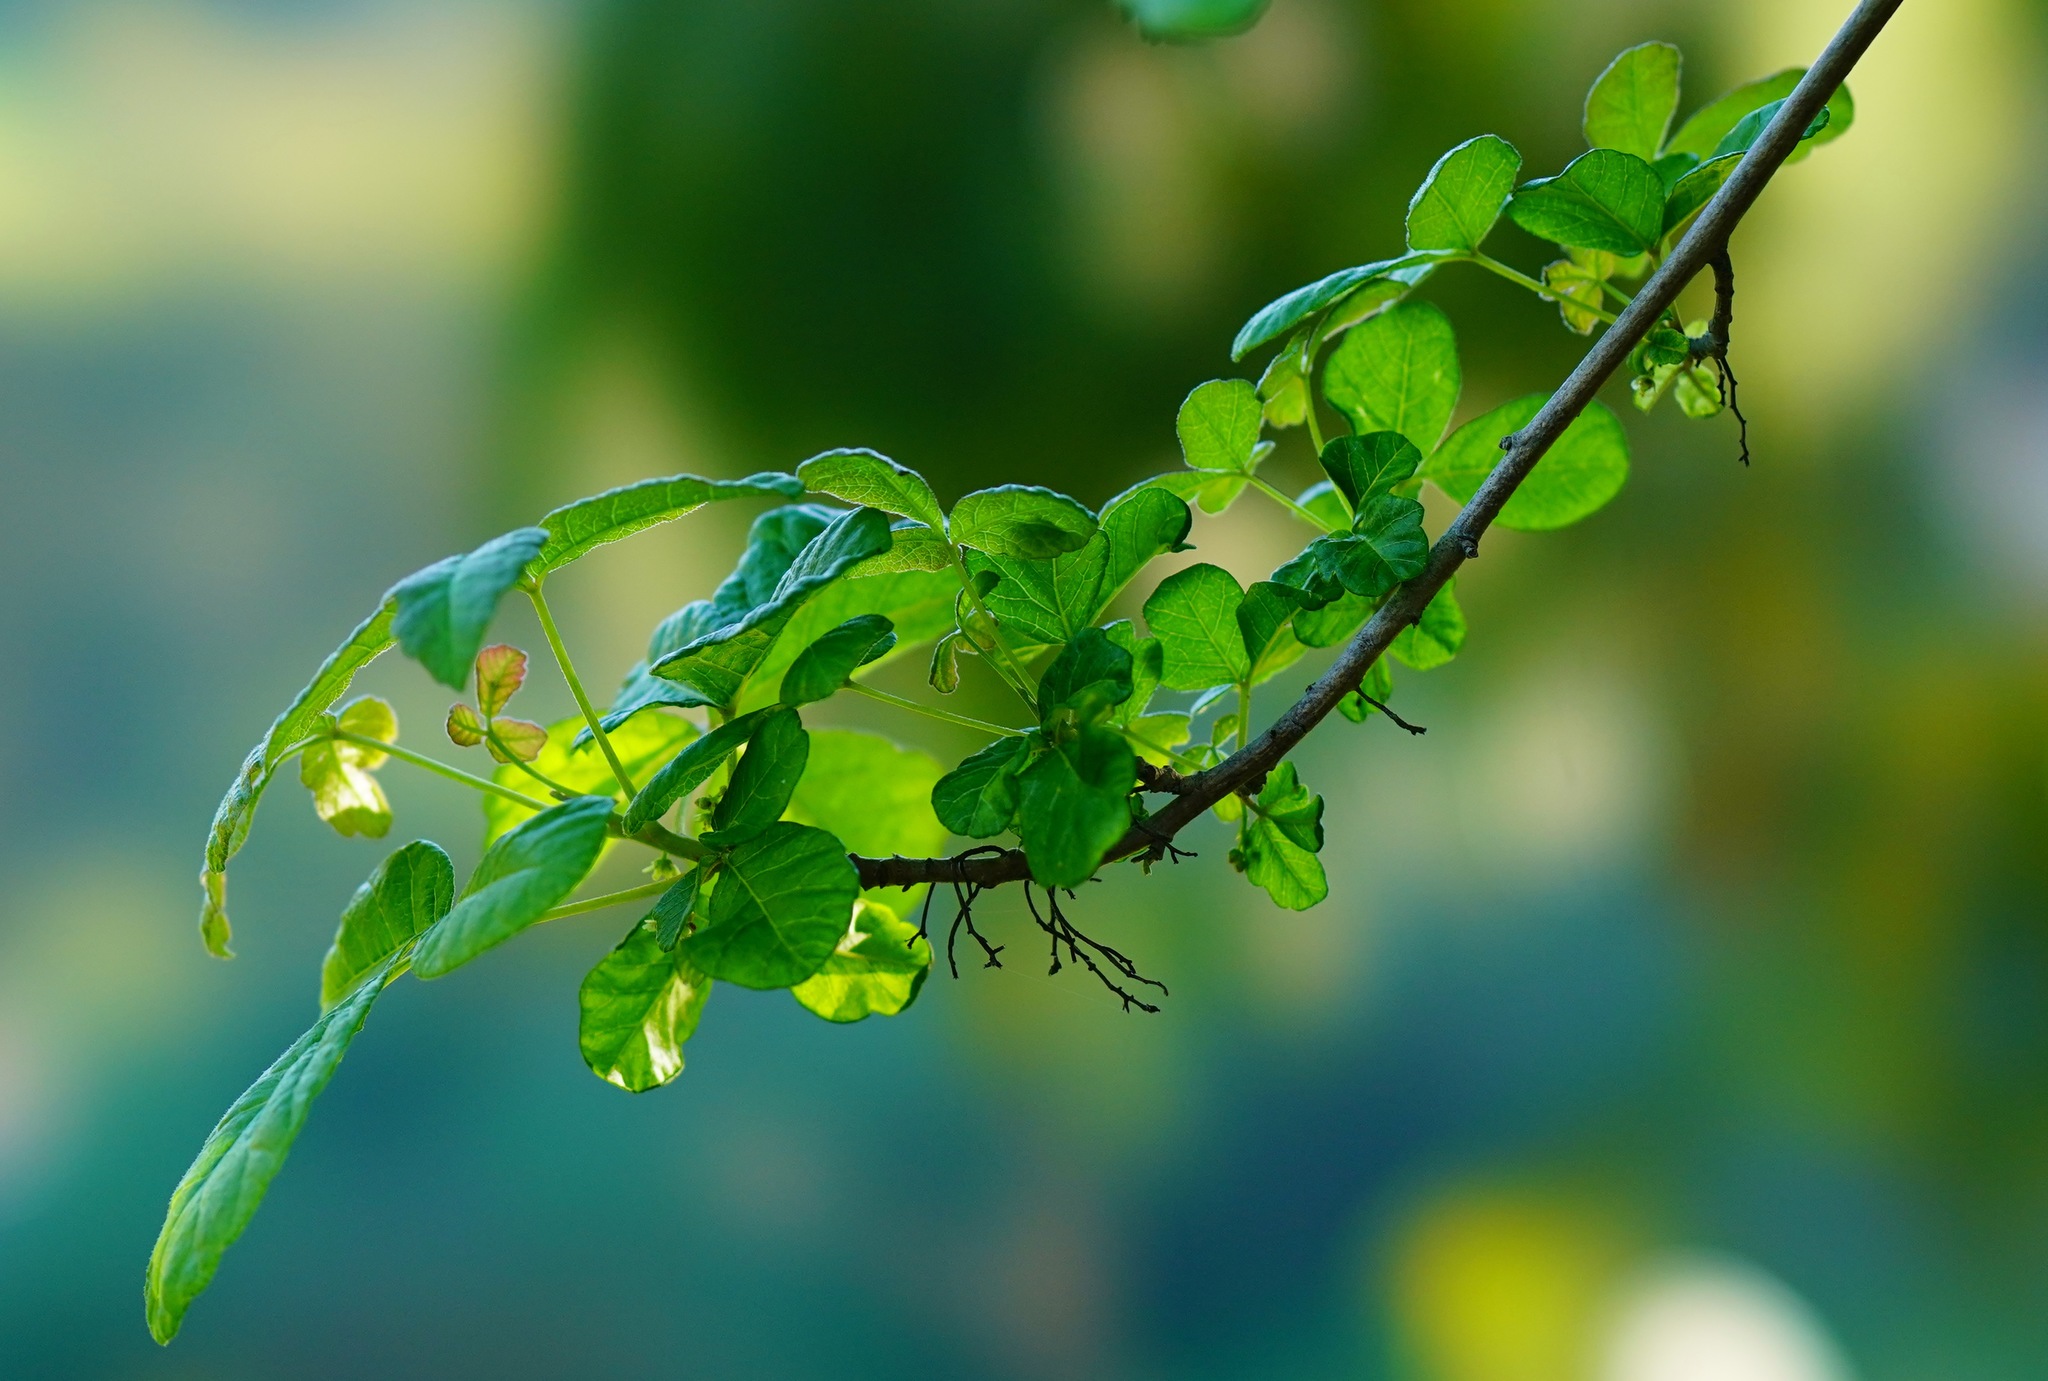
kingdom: Plantae
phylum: Tracheophyta
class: Magnoliopsida
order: Sapindales
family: Anacardiaceae
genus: Toxicodendron
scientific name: Toxicodendron diversilobum
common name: Pacific poison-oak
